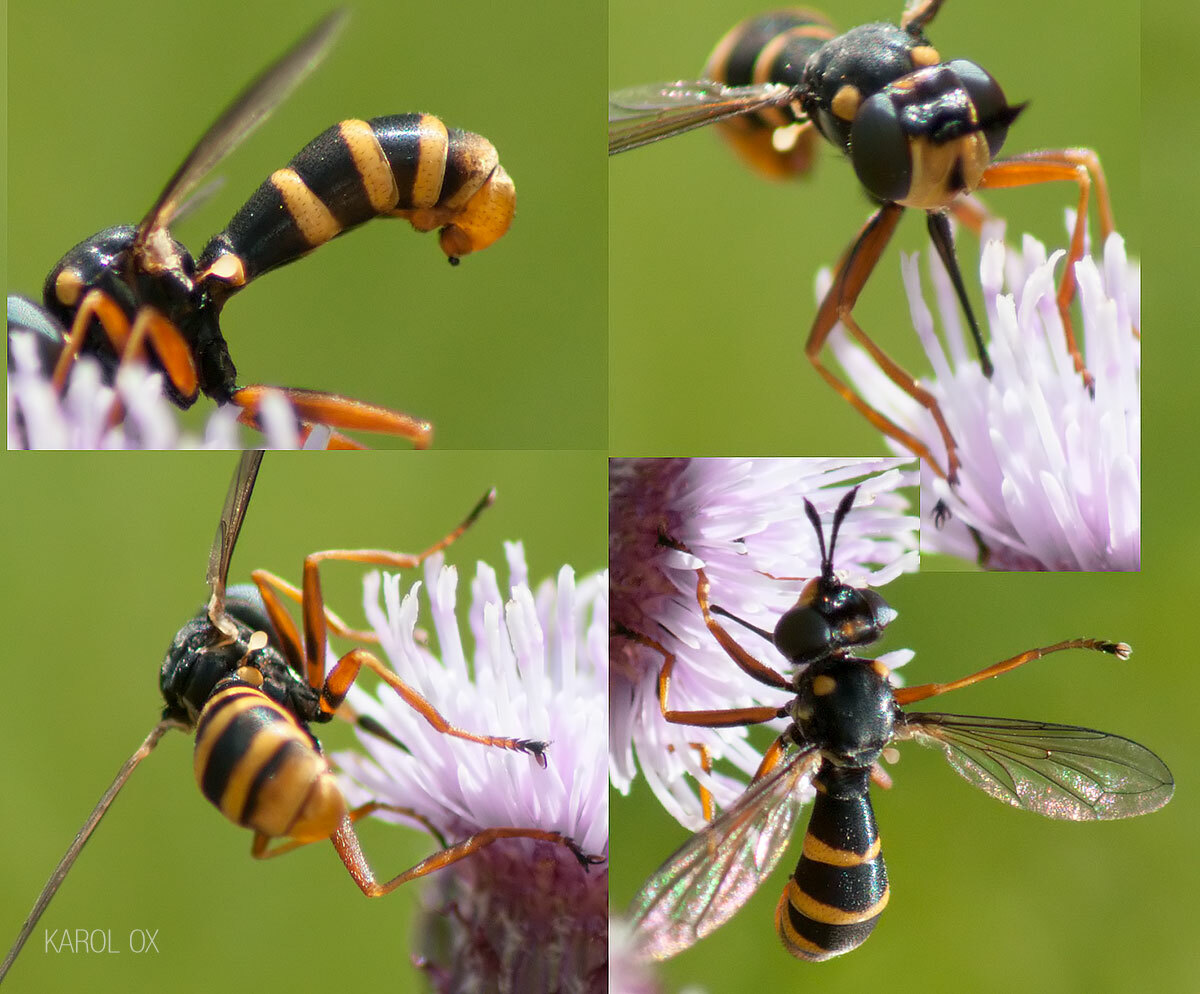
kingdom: Animalia
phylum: Arthropoda
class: Insecta
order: Diptera
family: Conopidae
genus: Conops
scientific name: Conops quadrifasciatus
